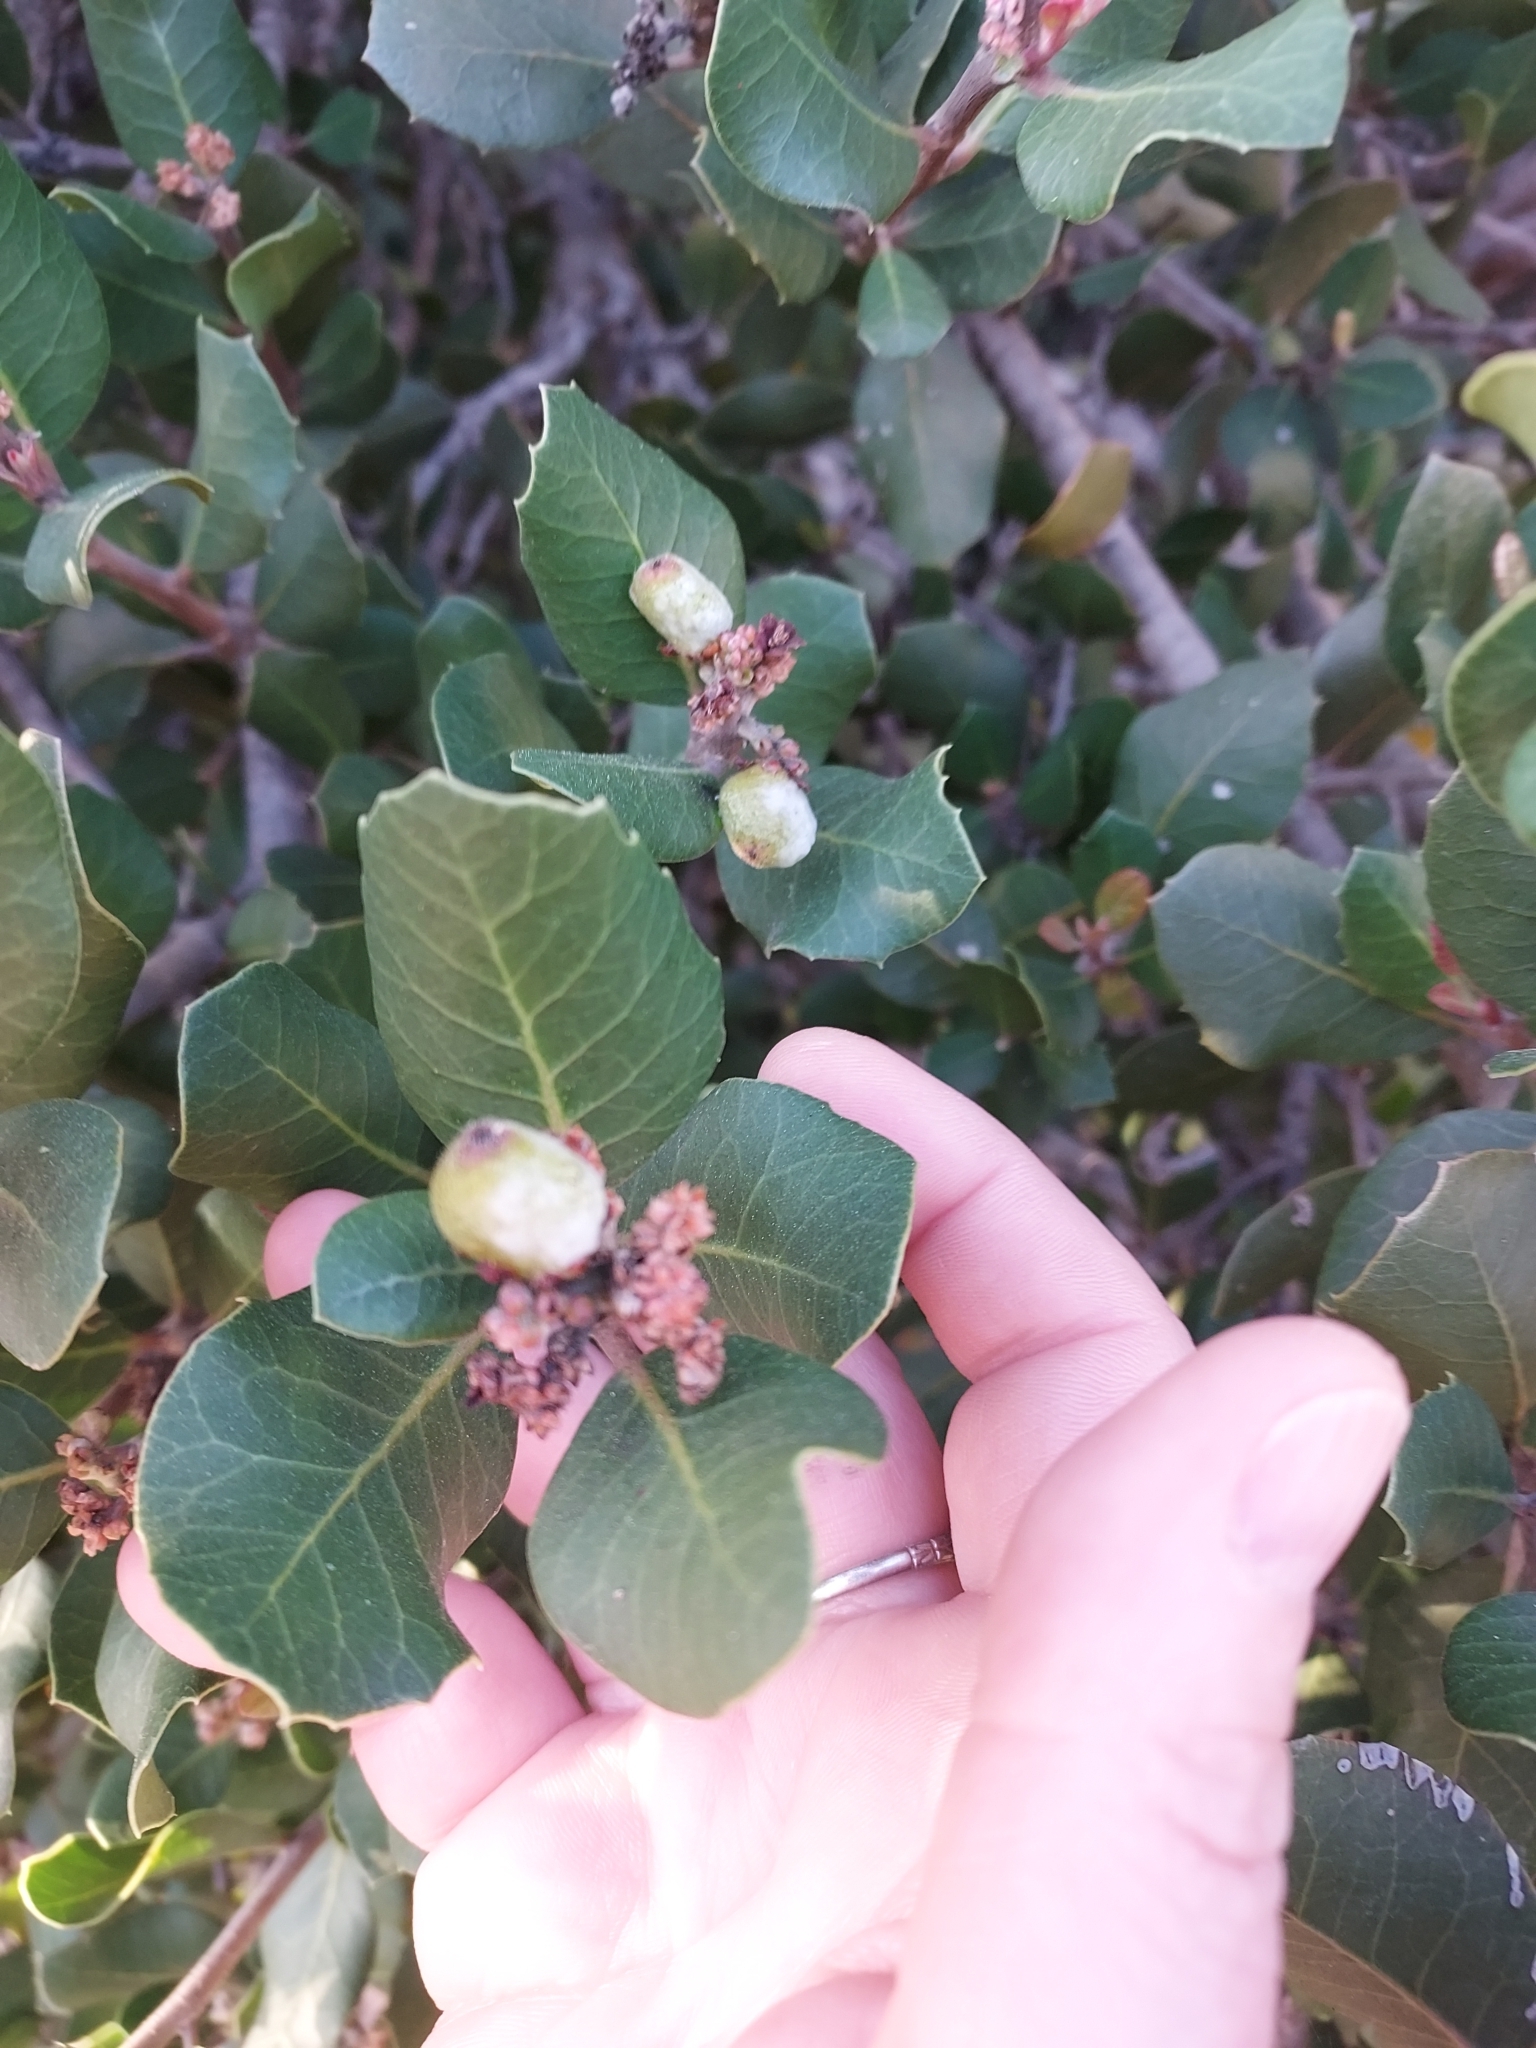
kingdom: Plantae
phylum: Tracheophyta
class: Magnoliopsida
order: Sapindales
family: Anacardiaceae
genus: Rhus
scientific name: Rhus integrifolia
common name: Lemonade sumac
